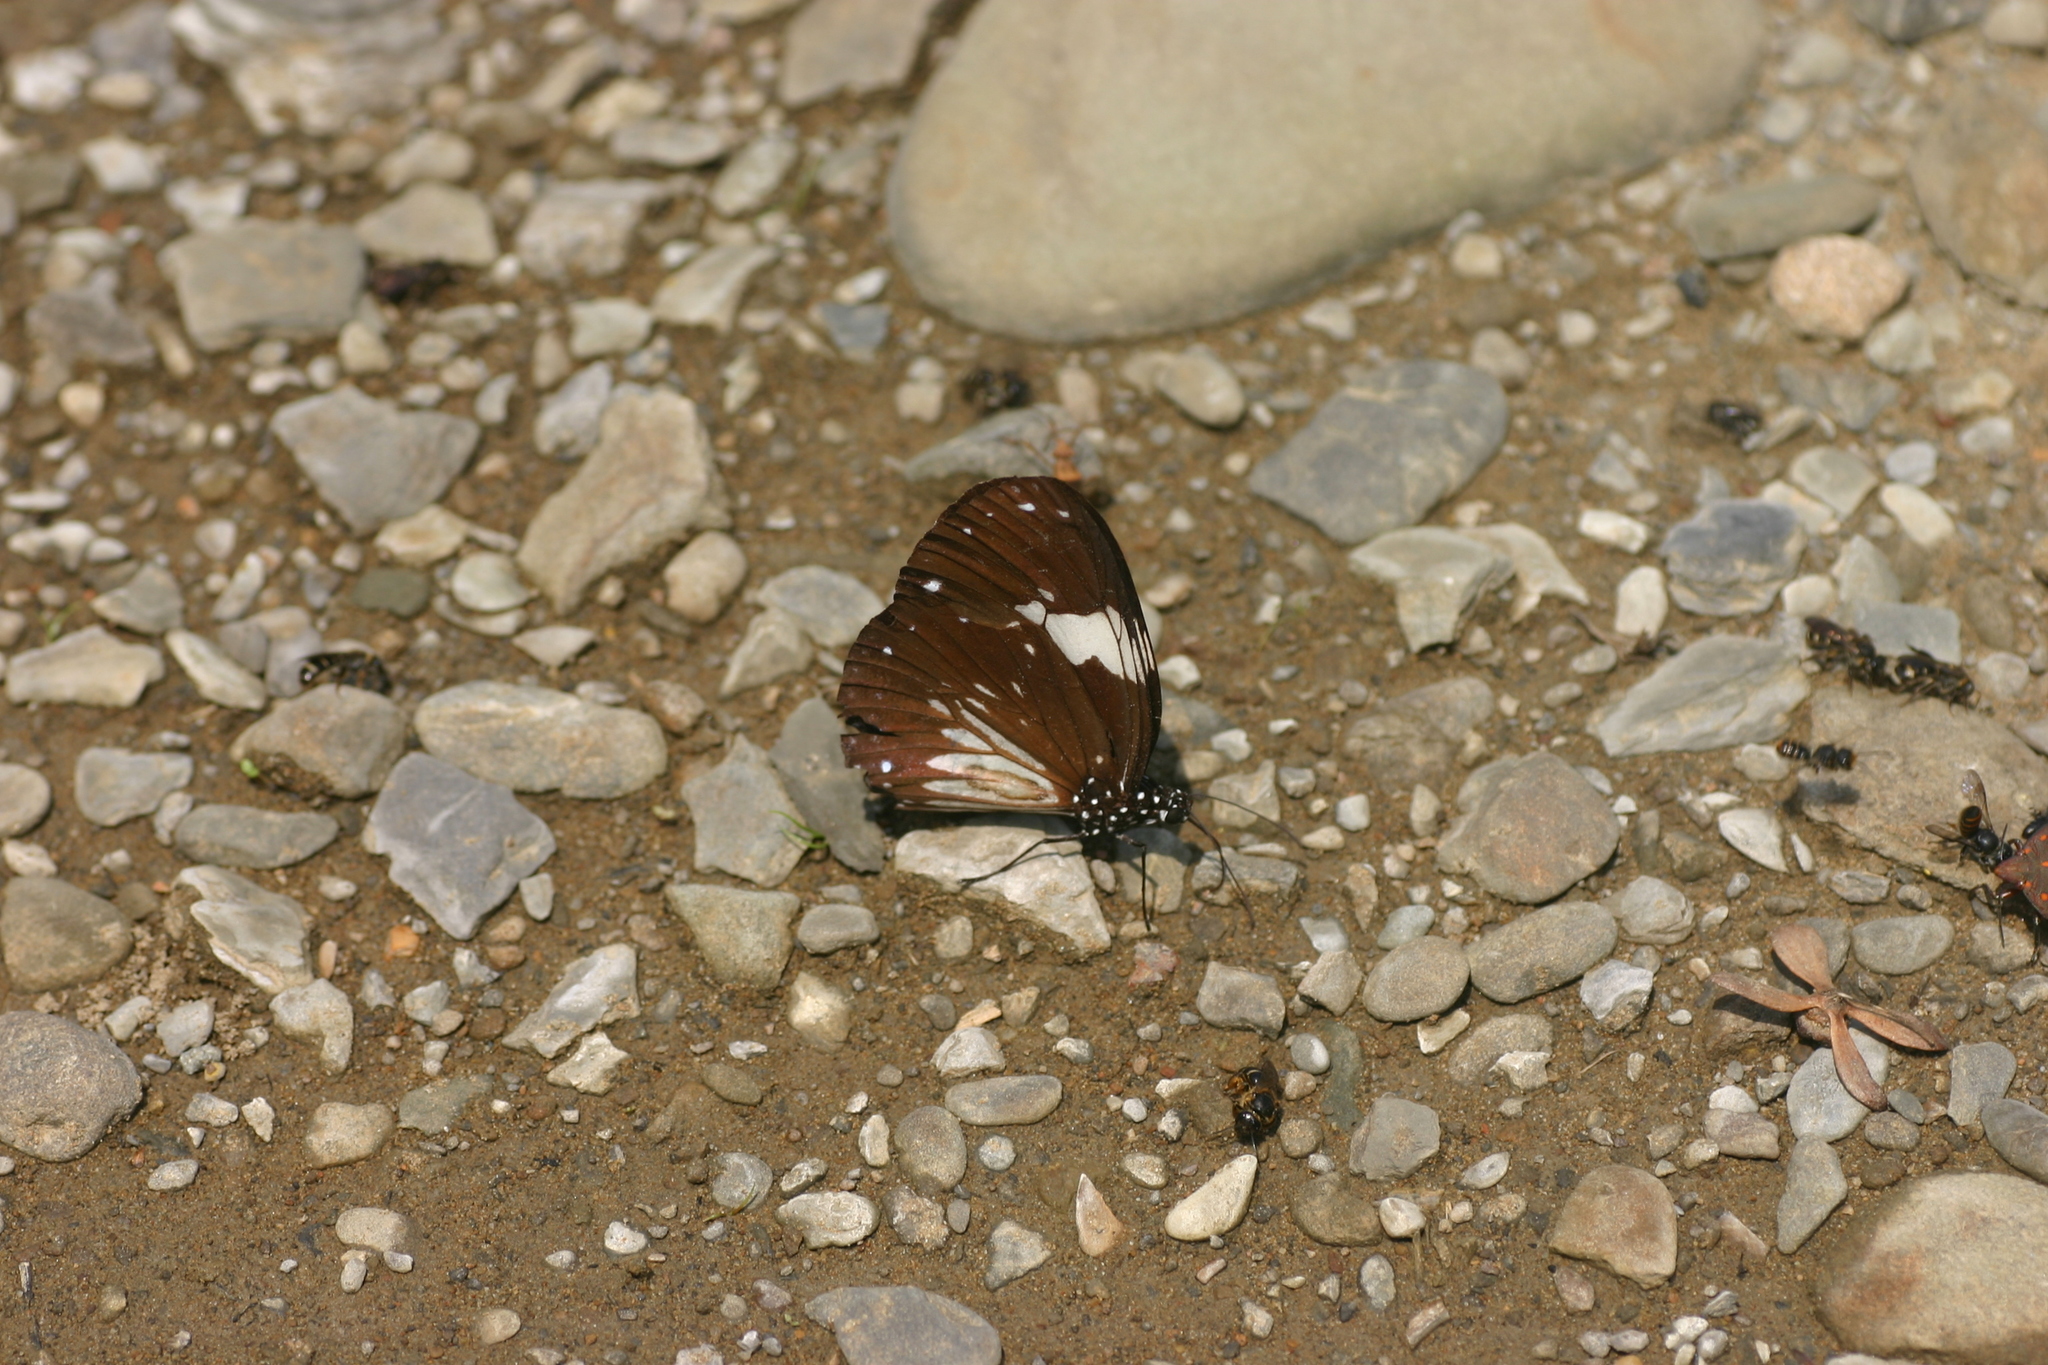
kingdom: Animalia
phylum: Arthropoda
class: Insecta
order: Lepidoptera
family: Nymphalidae
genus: Euploea
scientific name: Euploea radamanthus
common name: Magpie crow butterfly
